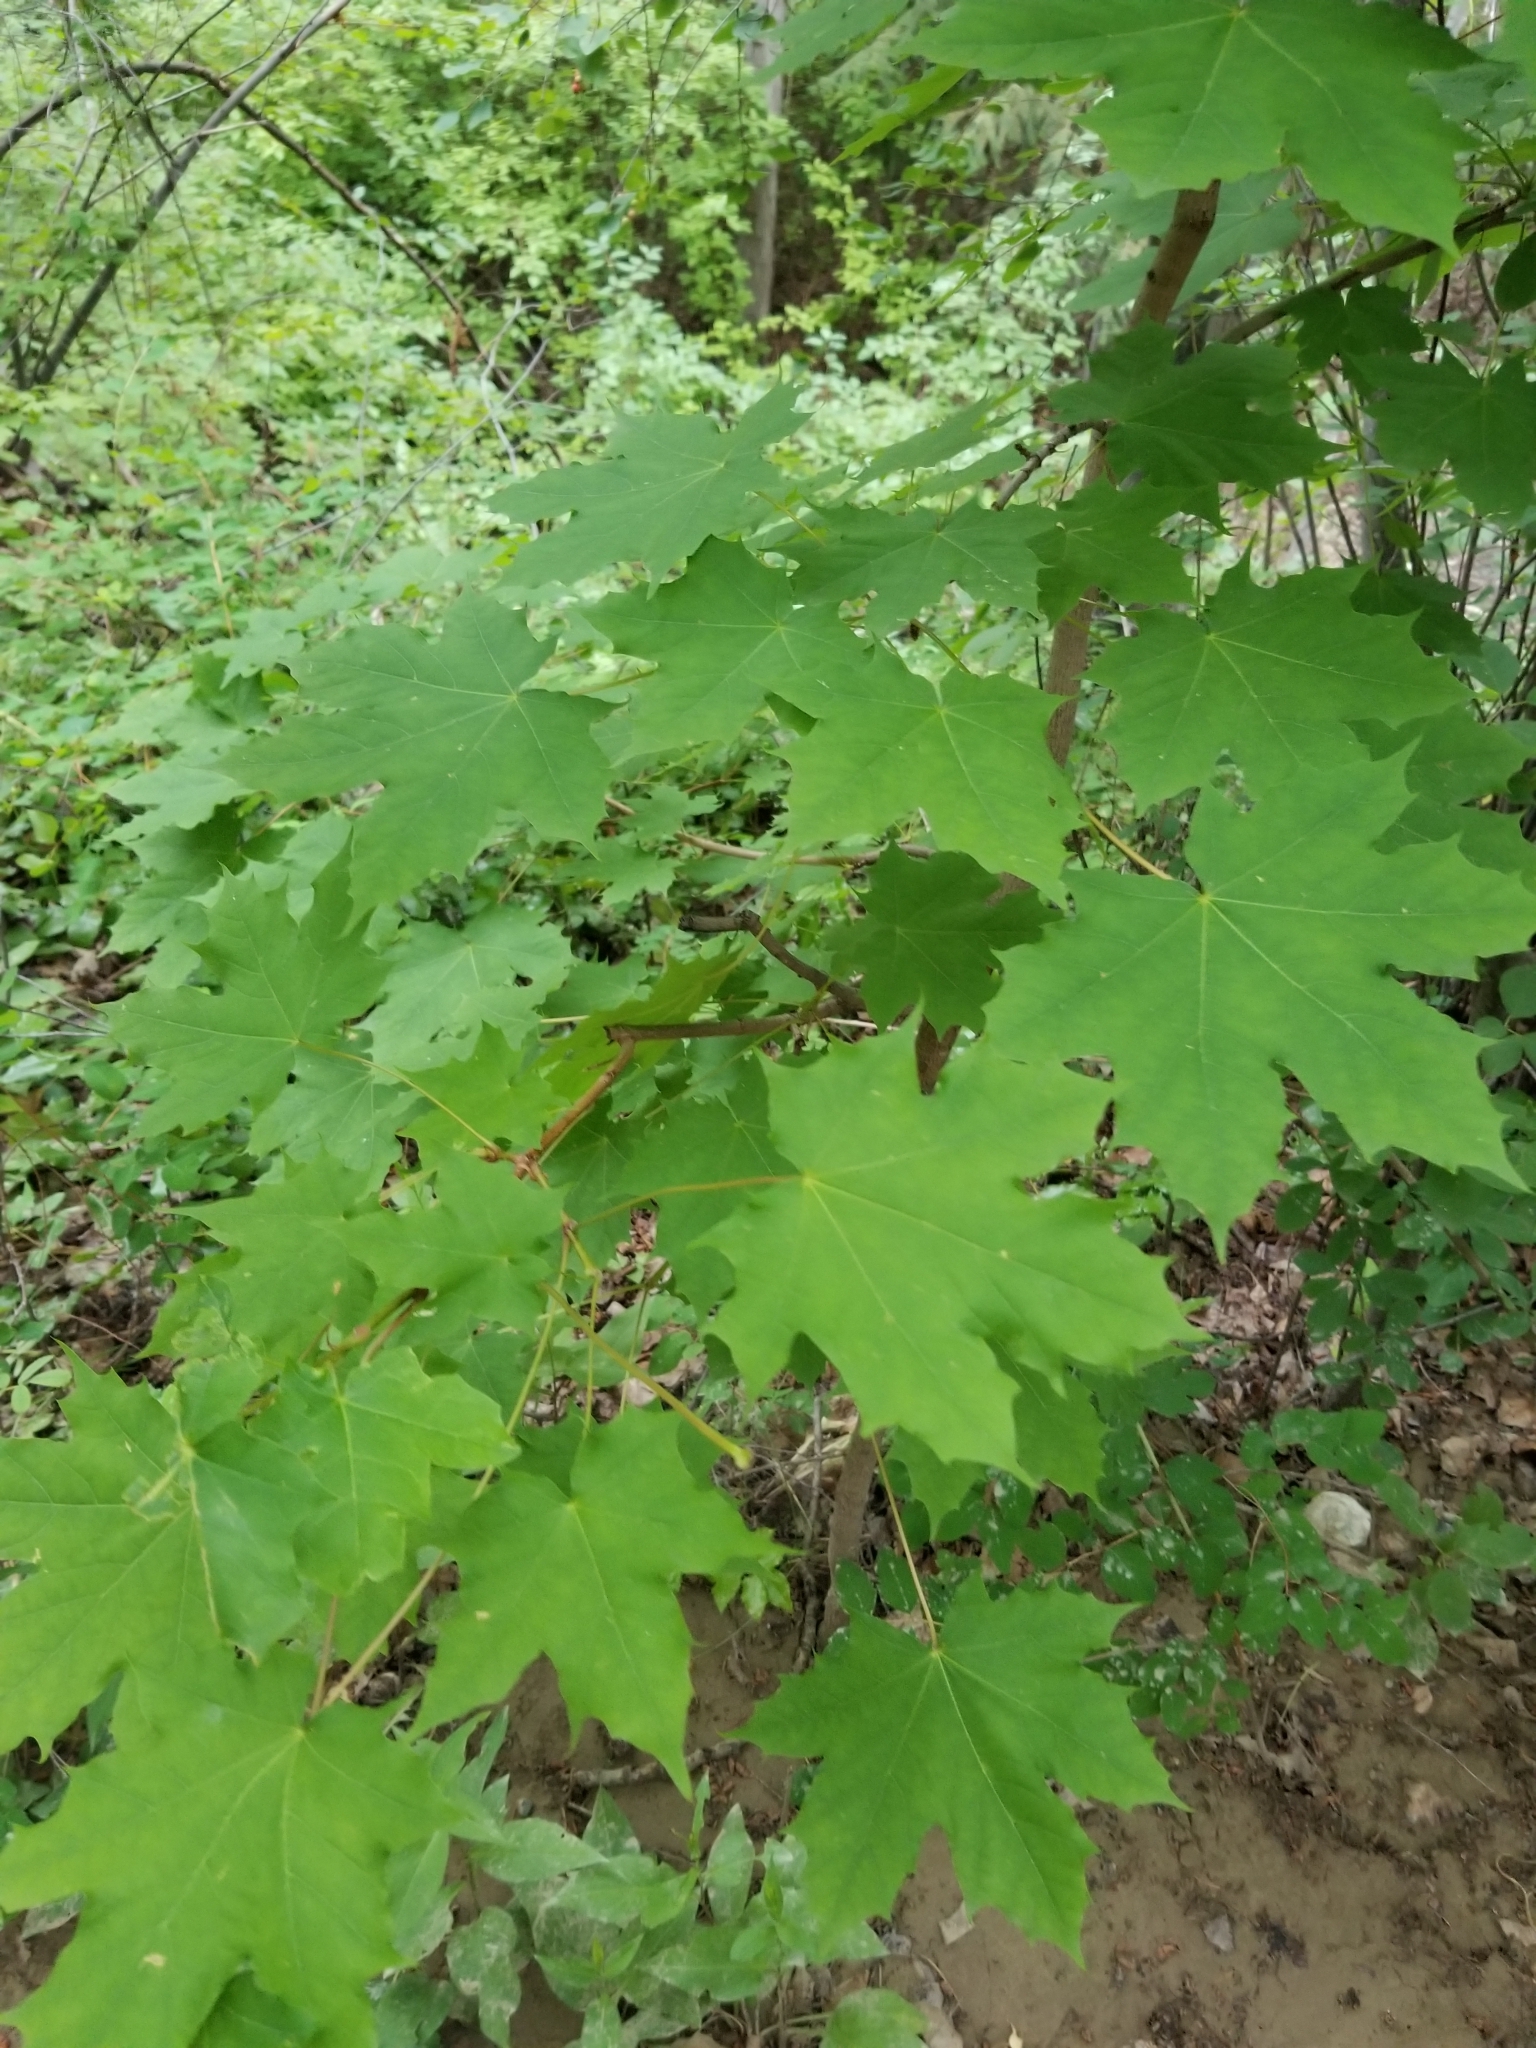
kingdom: Plantae
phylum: Tracheophyta
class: Magnoliopsida
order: Sapindales
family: Sapindaceae
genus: Acer
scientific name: Acer platanoides
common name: Norway maple
